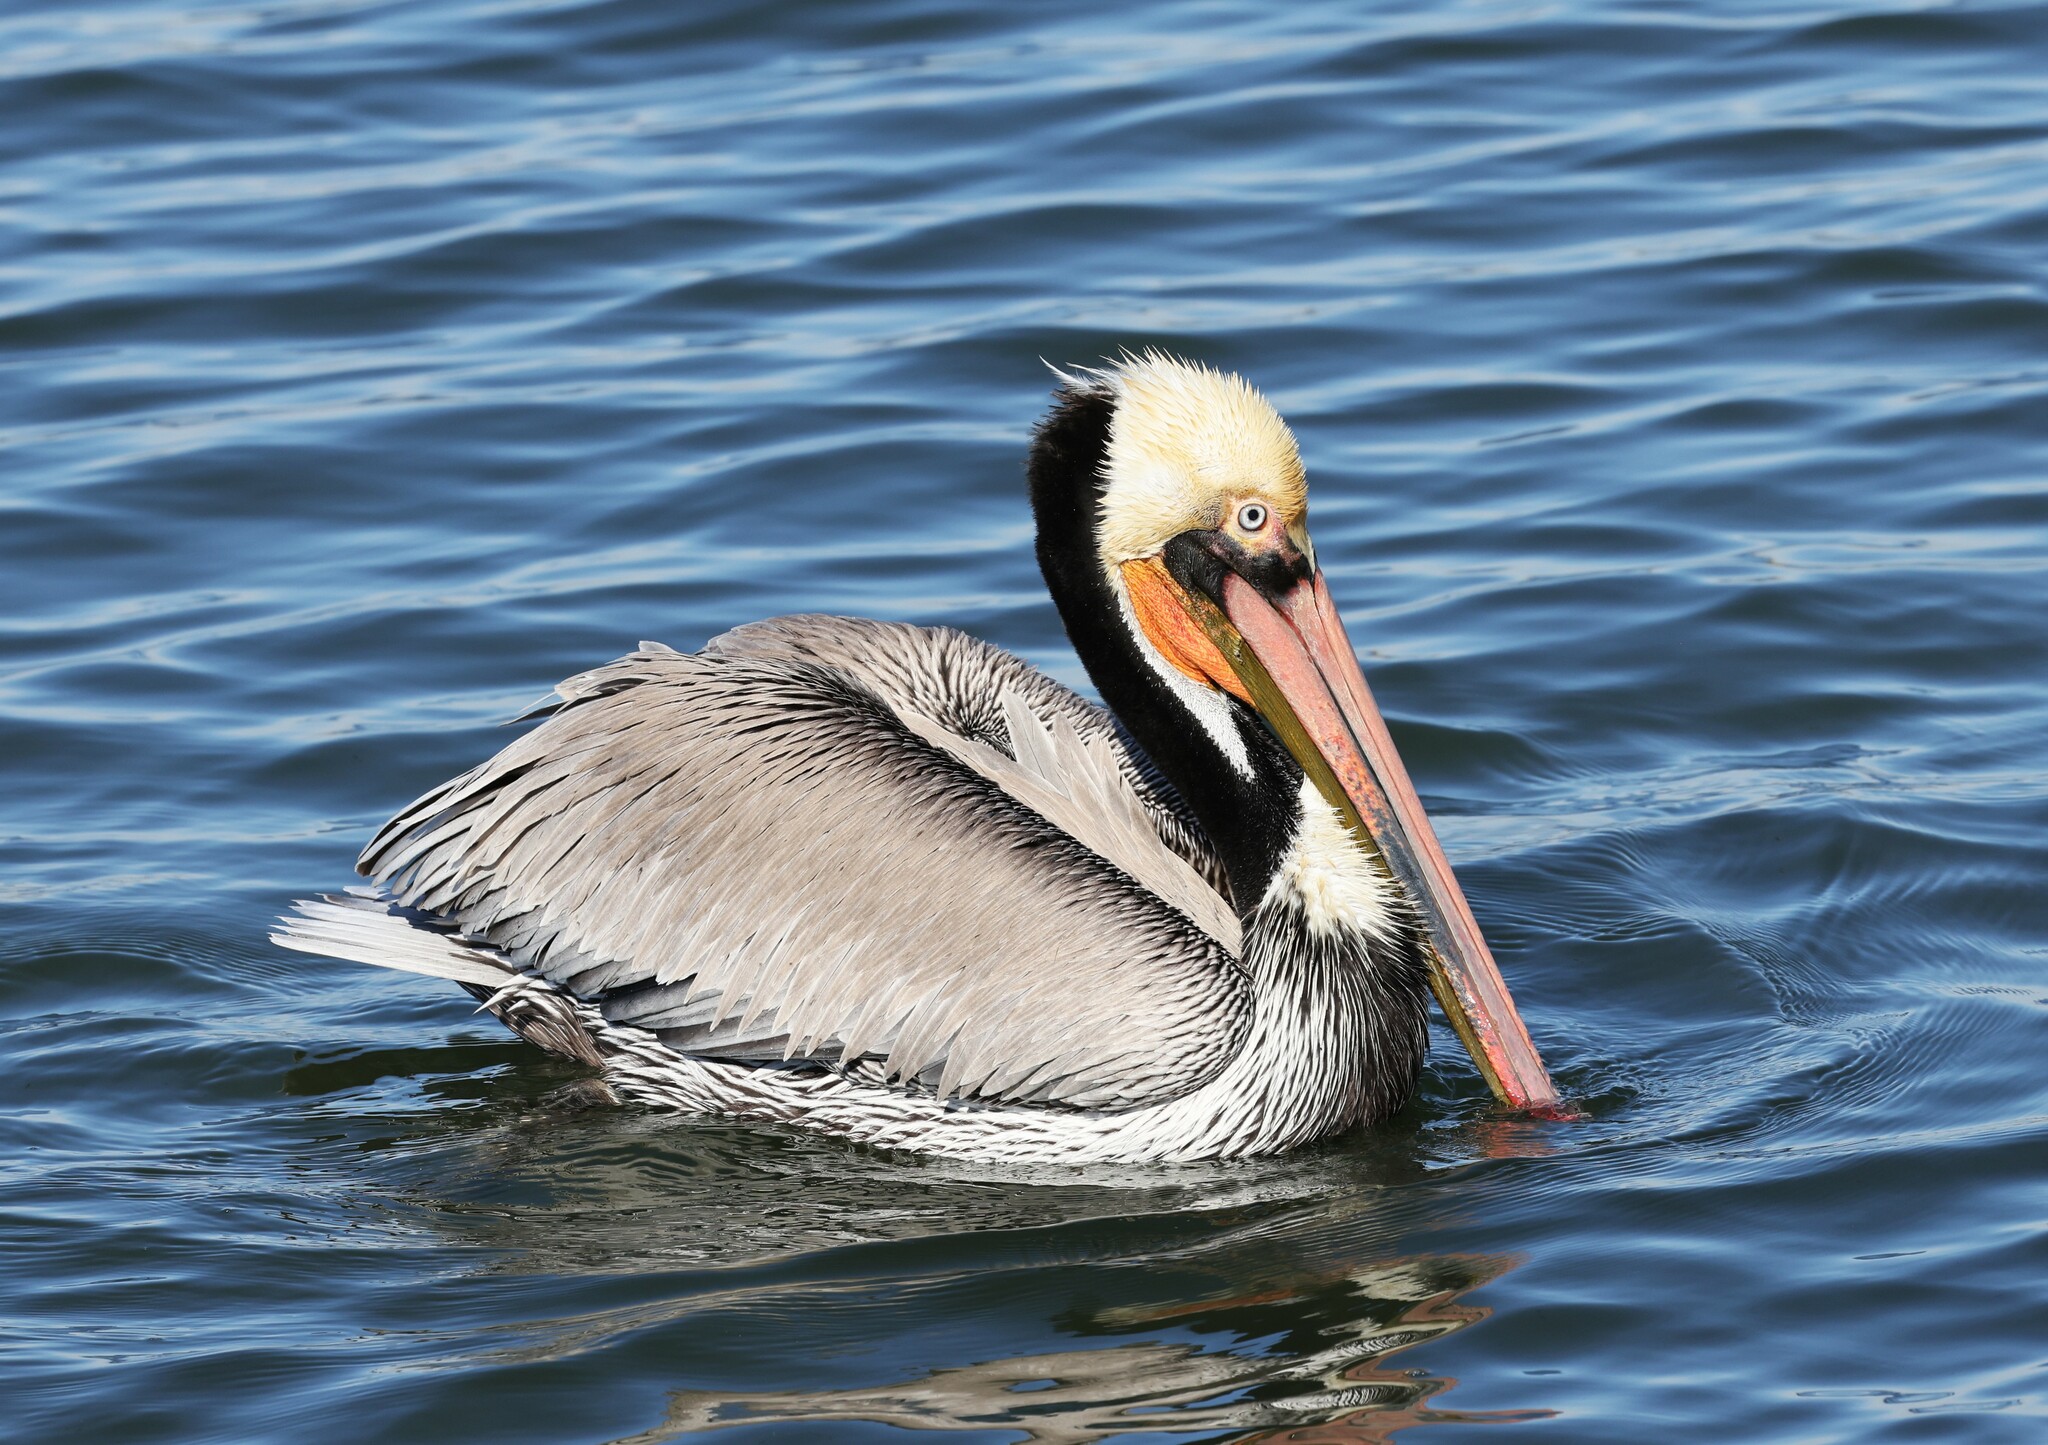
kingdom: Animalia
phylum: Chordata
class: Aves
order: Pelecaniformes
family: Pelecanidae
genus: Pelecanus
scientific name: Pelecanus occidentalis
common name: Brown pelican
